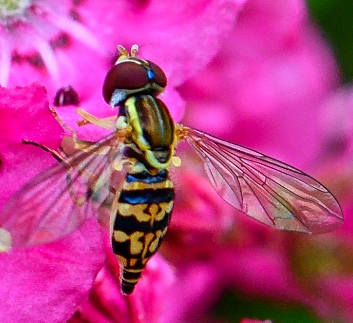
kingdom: Animalia
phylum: Arthropoda
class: Insecta
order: Diptera
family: Syrphidae
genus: Toxomerus
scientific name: Toxomerus geminatus
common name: Eastern calligrapher
